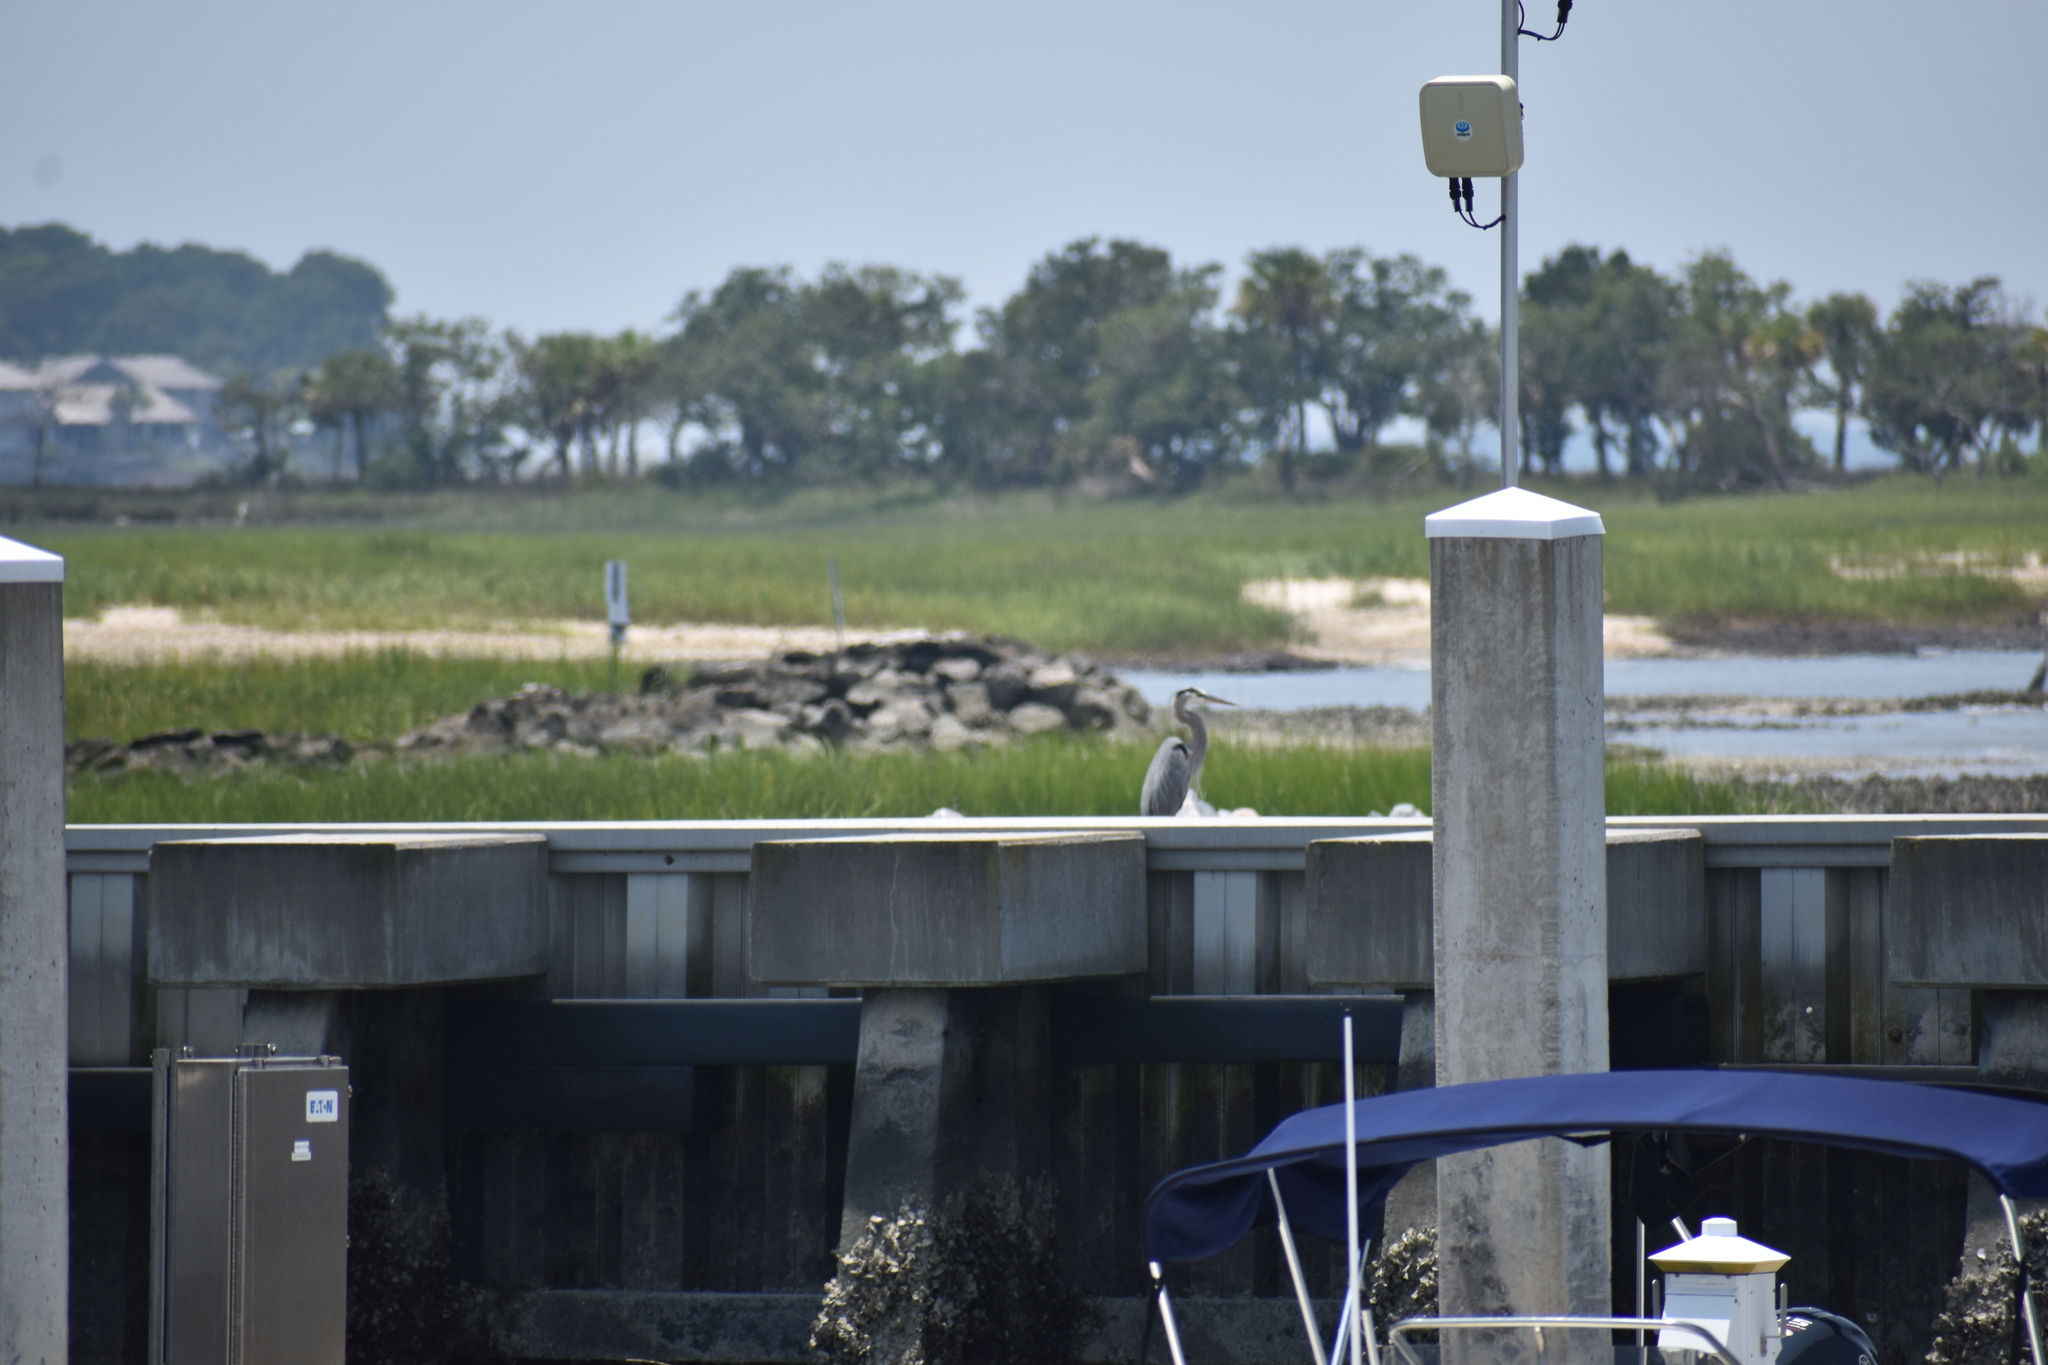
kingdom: Animalia
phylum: Chordata
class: Aves
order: Pelecaniformes
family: Ardeidae
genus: Ardea
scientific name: Ardea herodias
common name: Great blue heron
